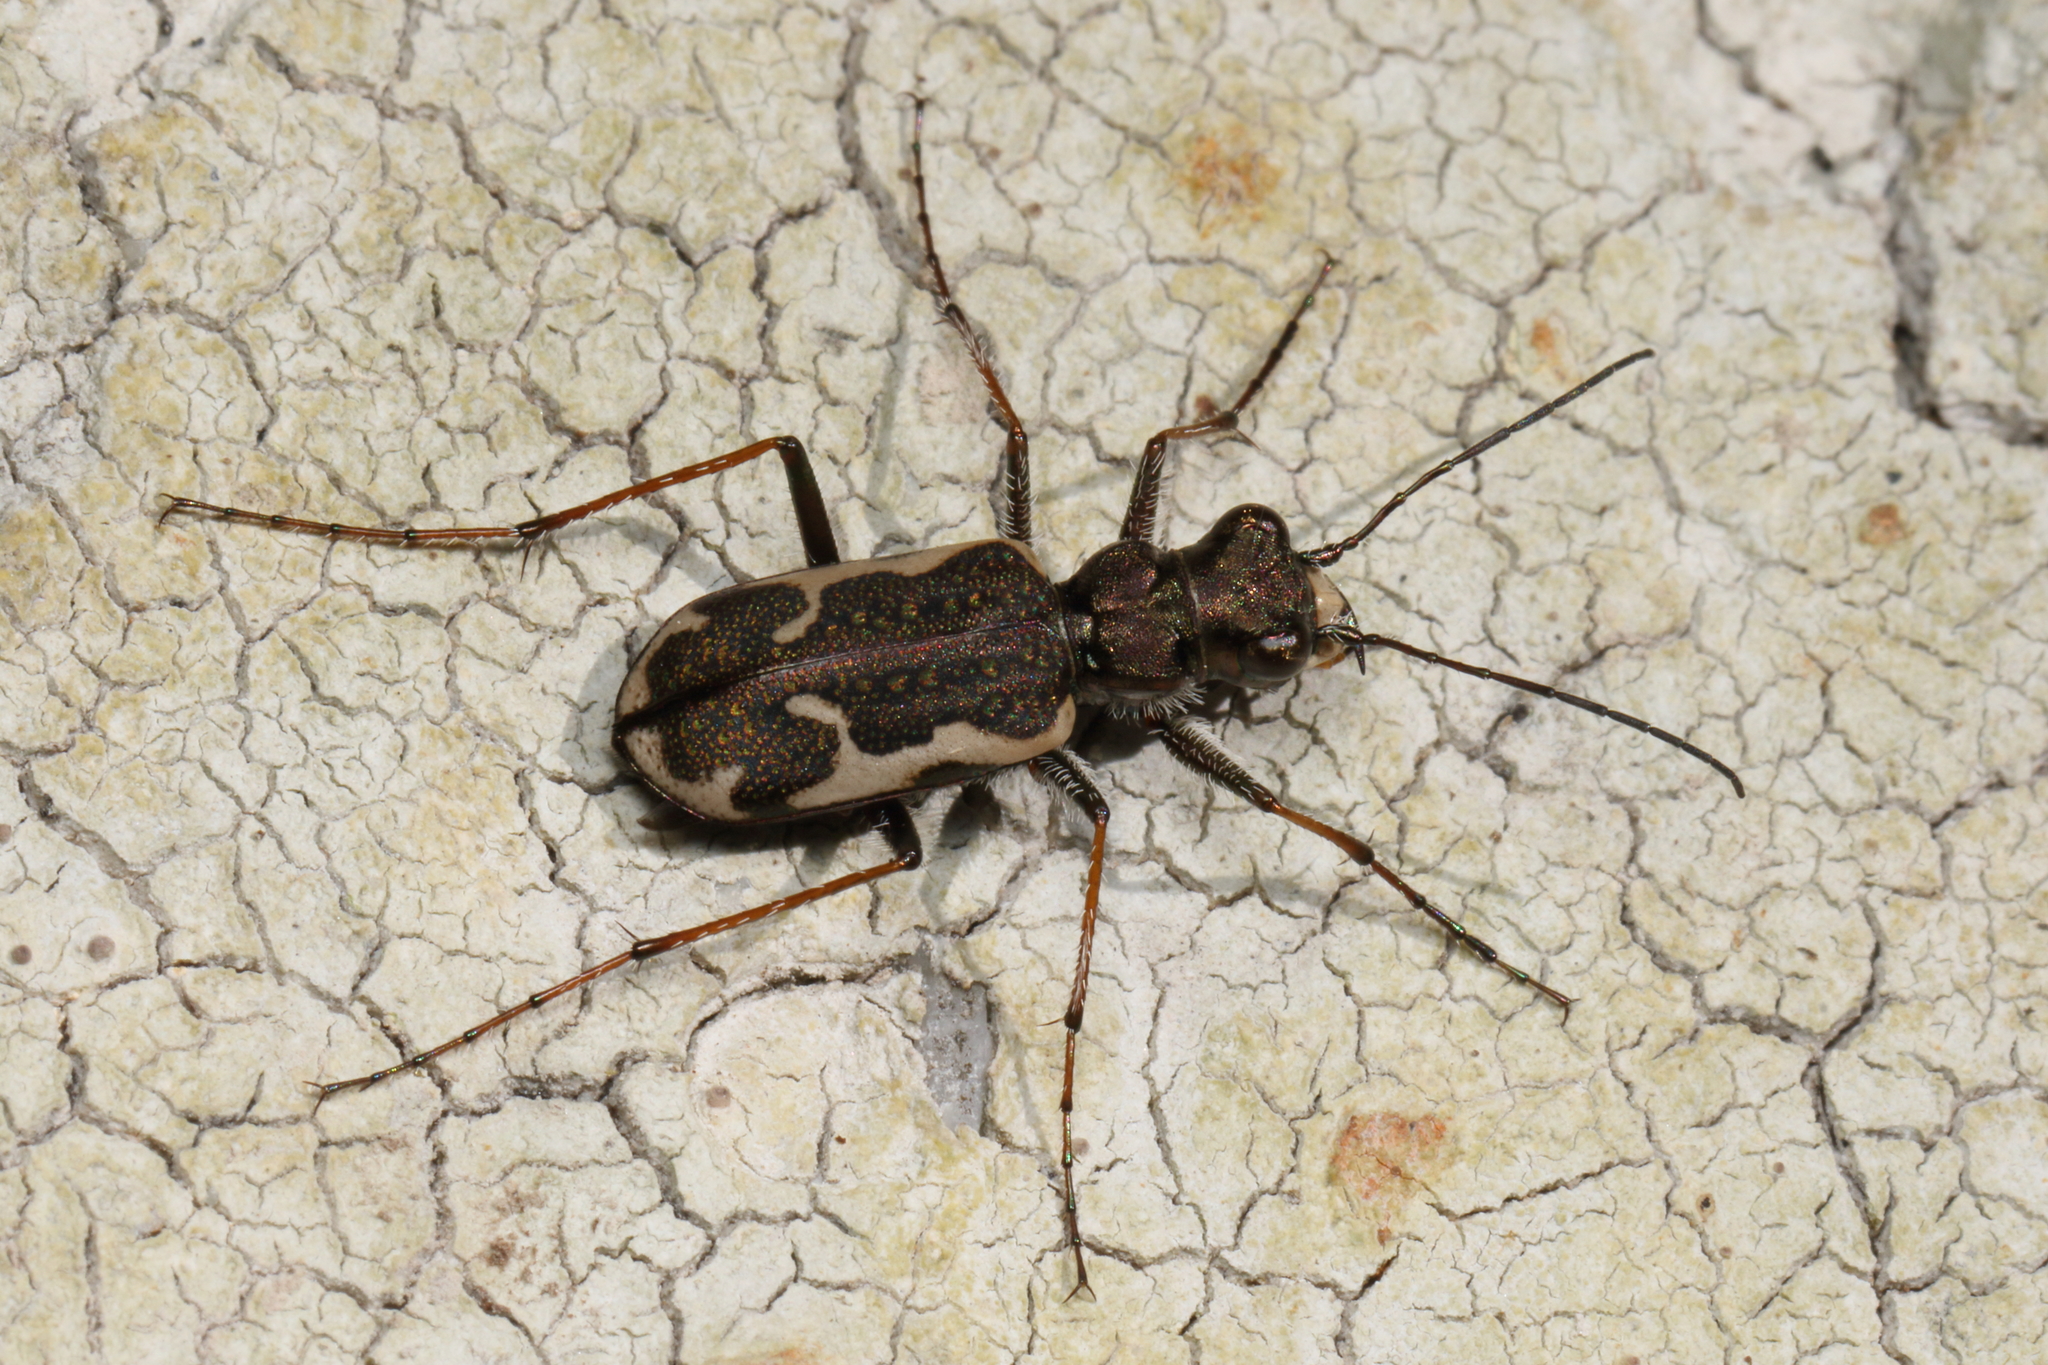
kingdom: Animalia
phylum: Arthropoda
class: Insecta
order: Coleoptera
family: Carabidae
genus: Neocicindela
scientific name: Neocicindela tuberculata
